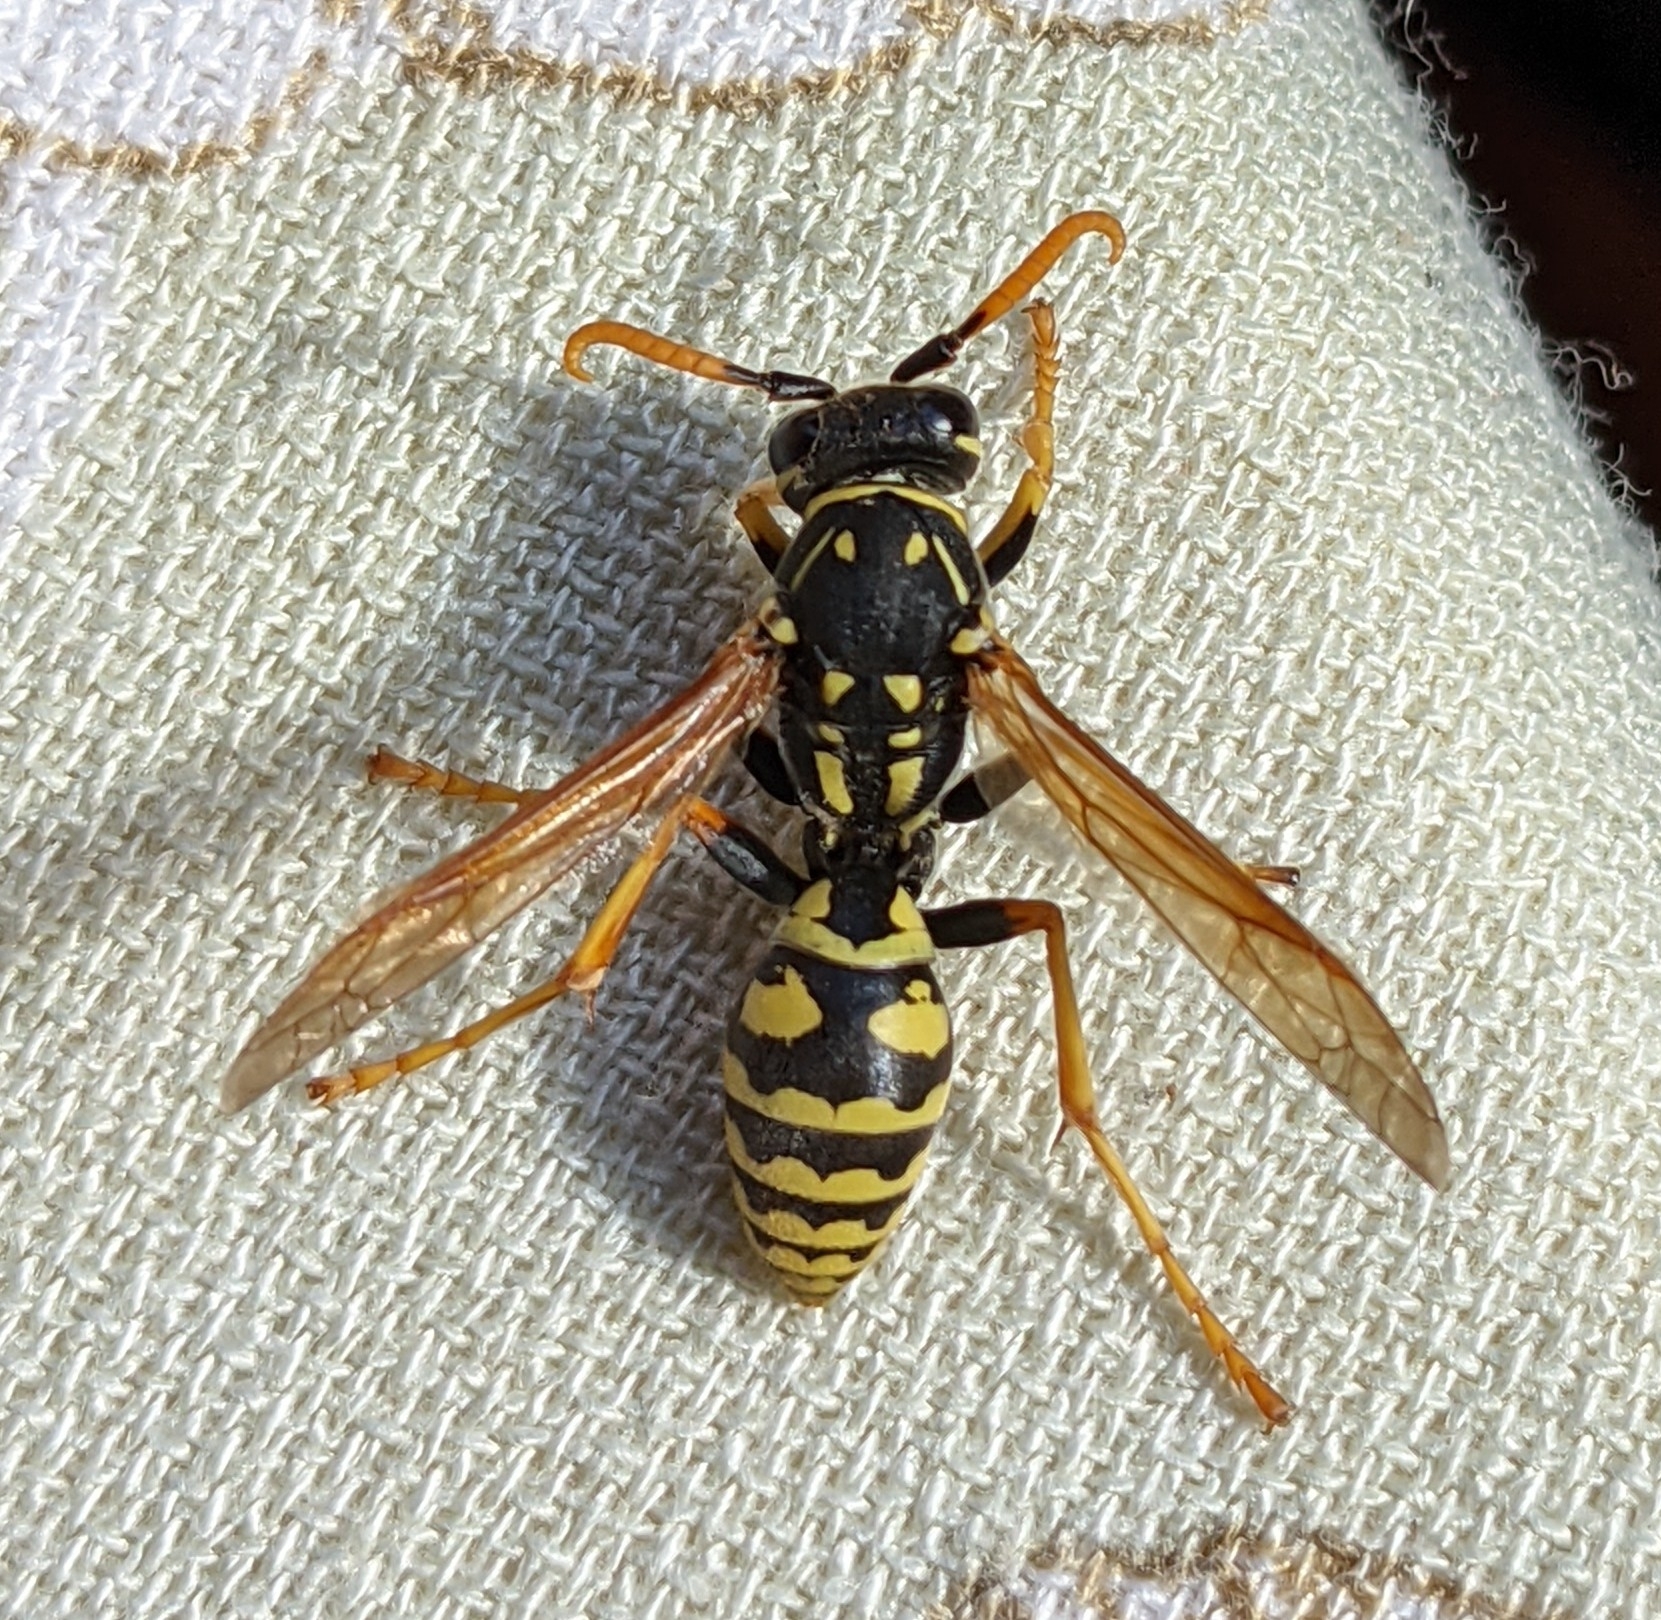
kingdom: Animalia
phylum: Arthropoda
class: Insecta
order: Hymenoptera
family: Eumenidae
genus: Polistes
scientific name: Polistes dominula
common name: Paper wasp
